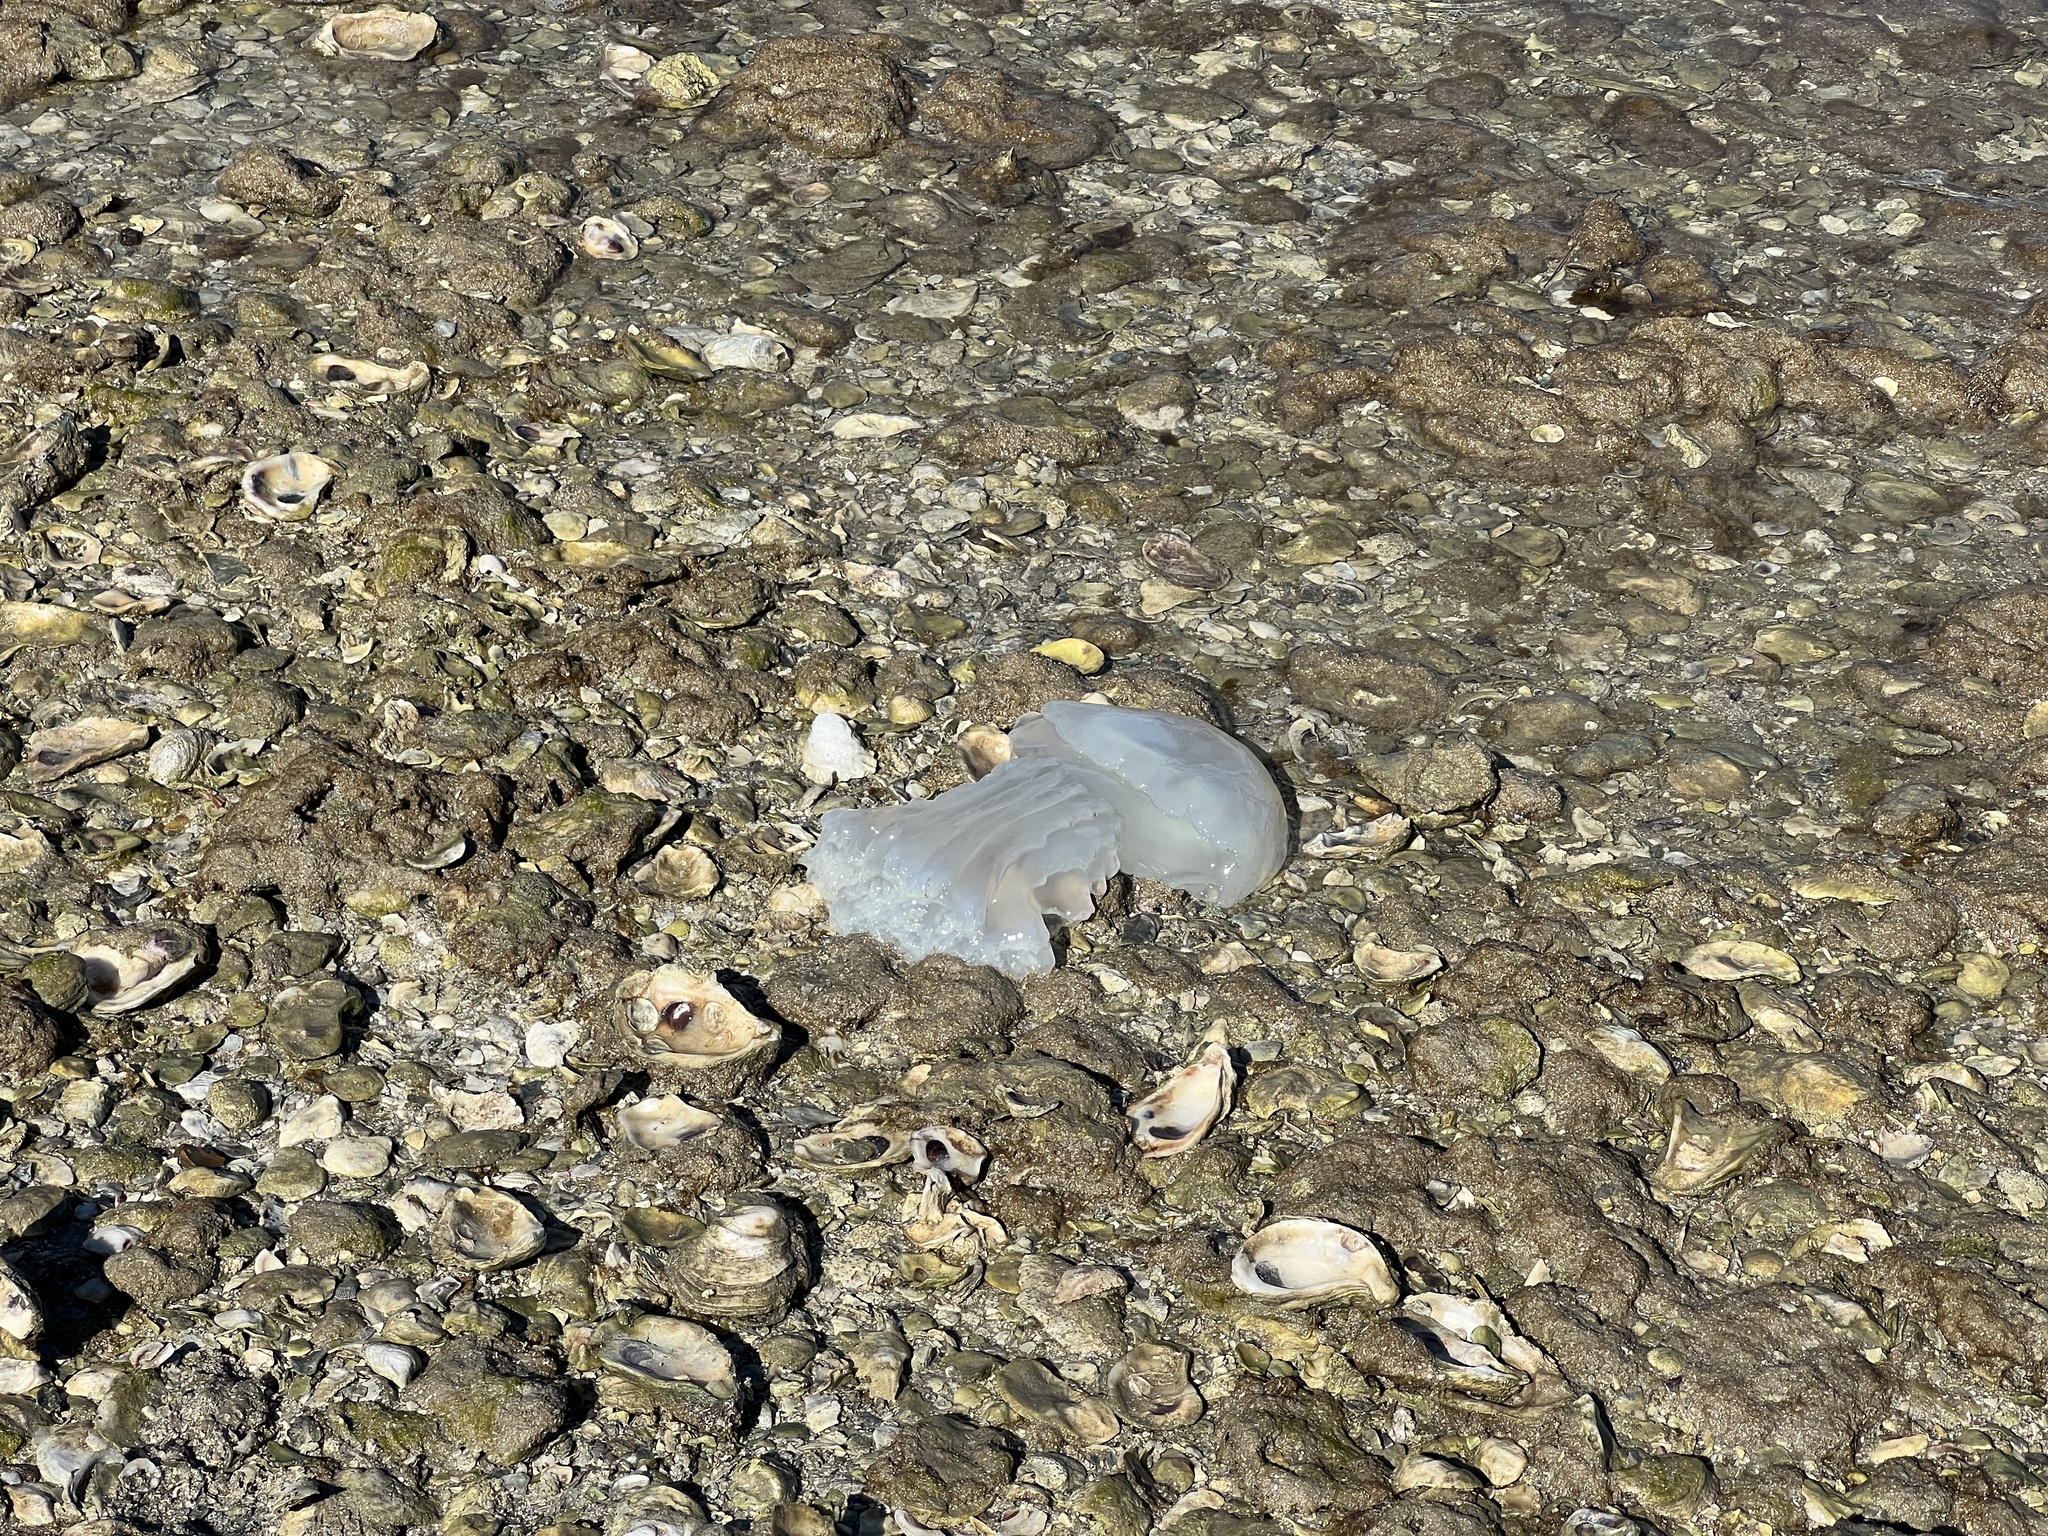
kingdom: Animalia
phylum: Cnidaria
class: Scyphozoa
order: Rhizostomeae
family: Stomolophidae
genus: Stomolophus
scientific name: Stomolophus meleagris
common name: Cabbagehead
